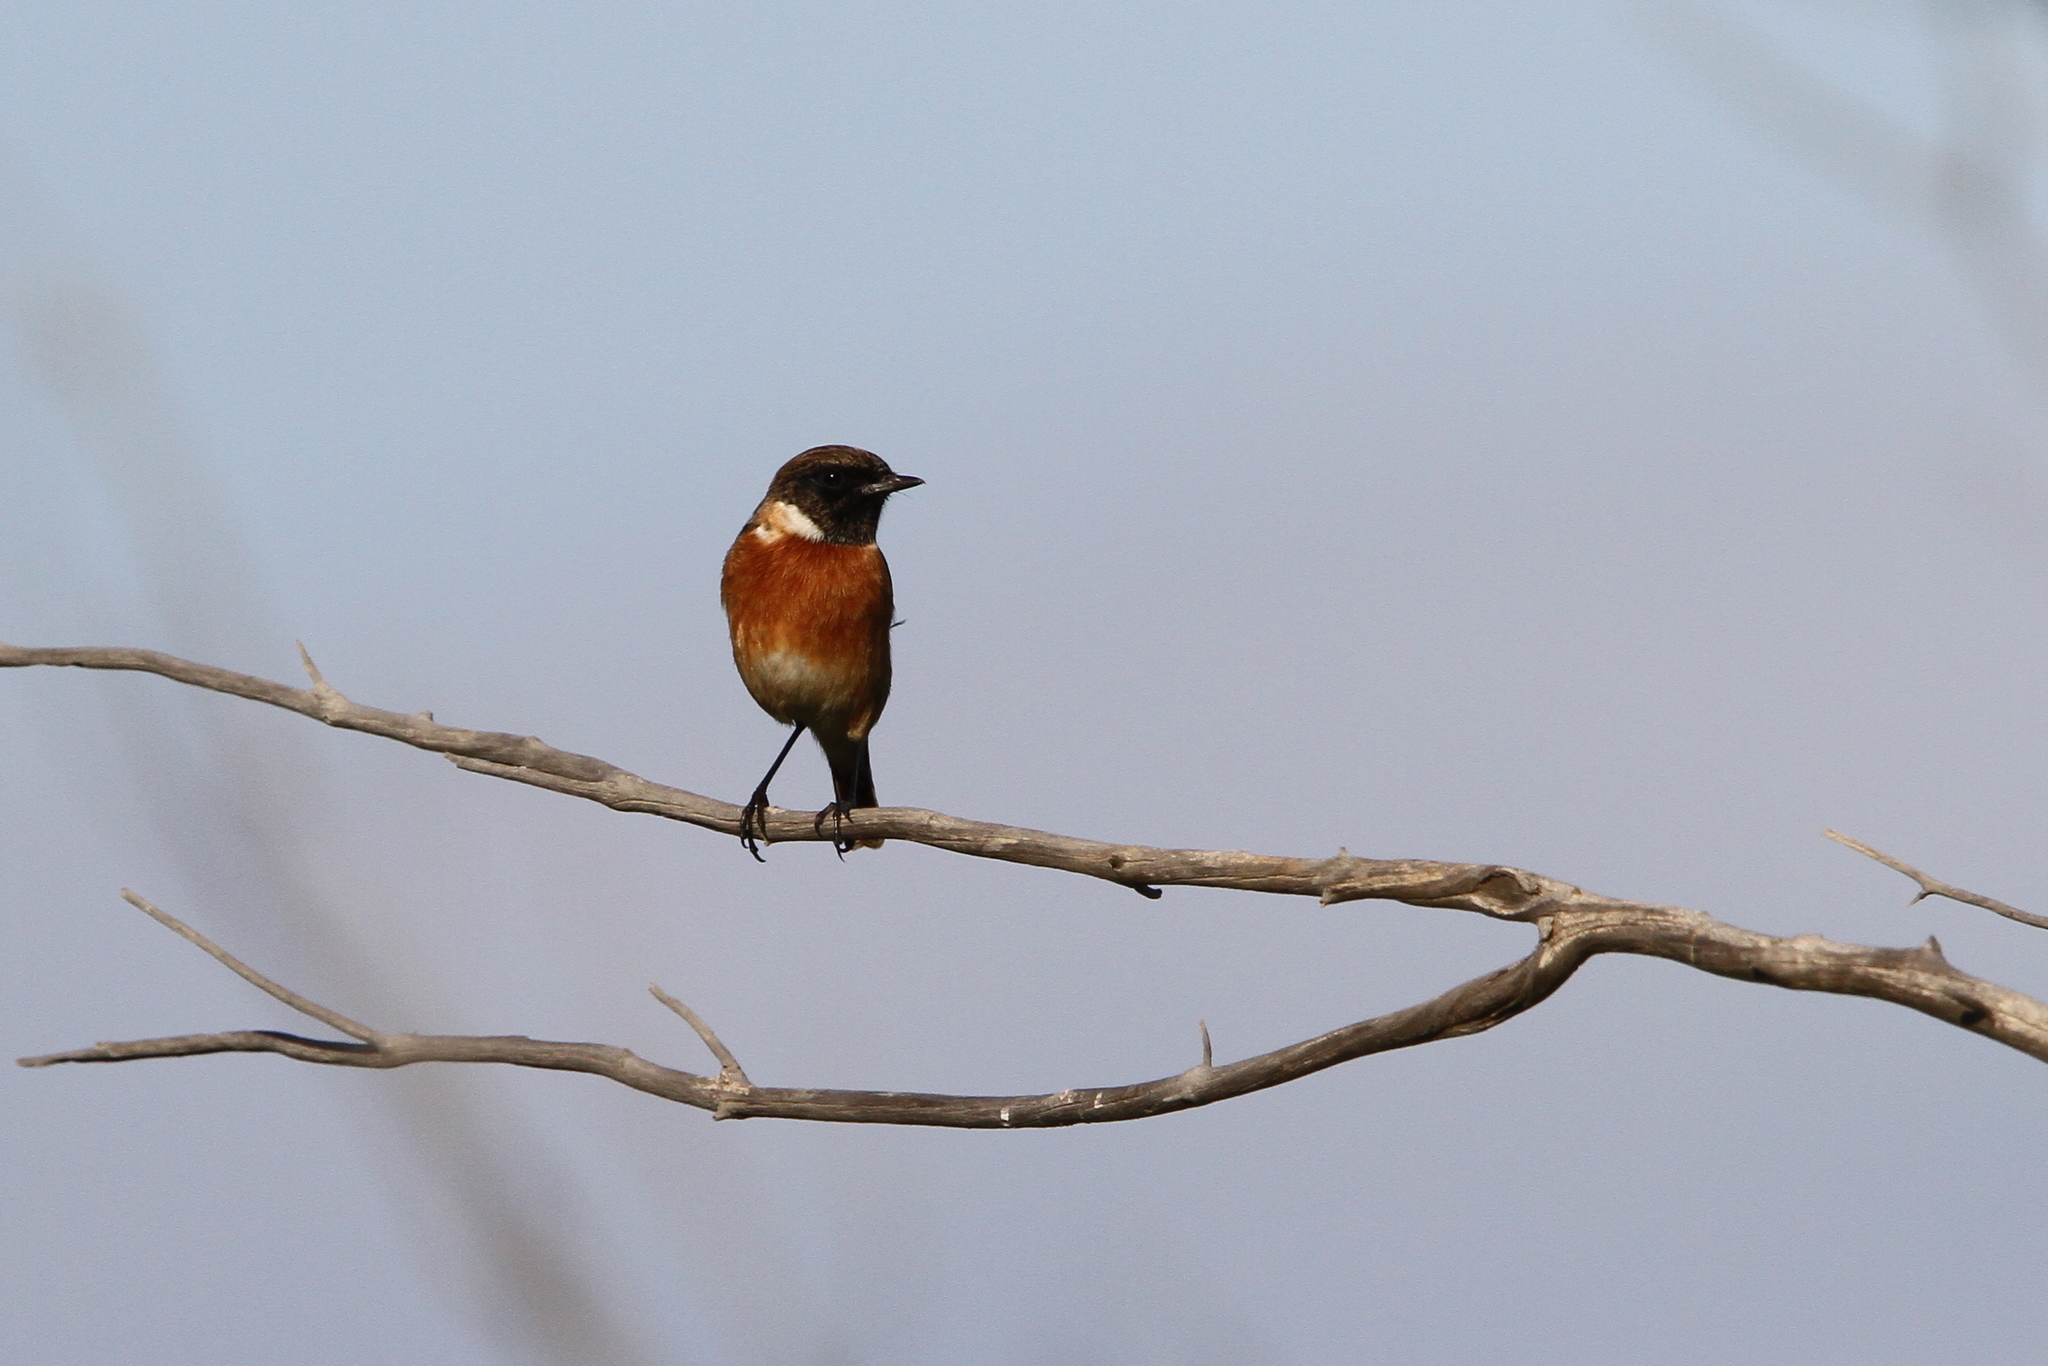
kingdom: Animalia
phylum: Chordata
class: Aves
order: Passeriformes
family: Muscicapidae
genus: Saxicola
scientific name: Saxicola rubicola
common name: European stonechat
